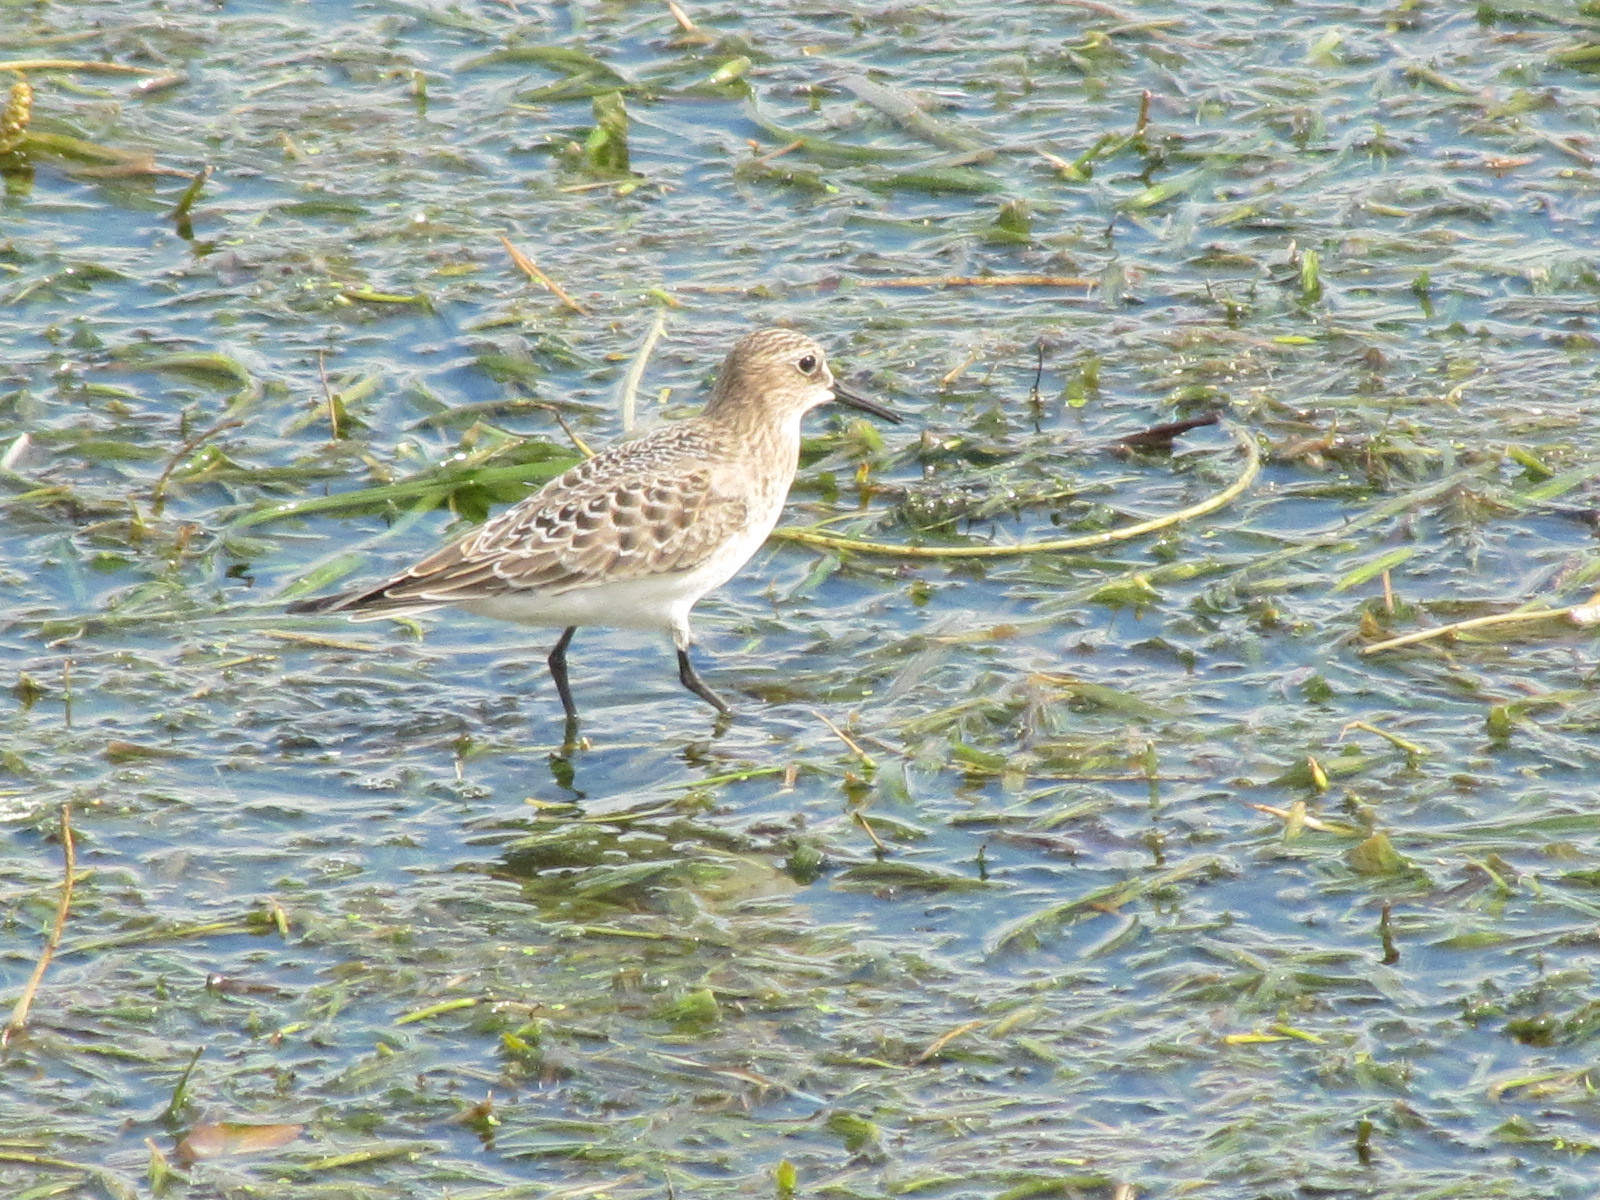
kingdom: Animalia
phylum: Chordata
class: Aves
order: Charadriiformes
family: Scolopacidae
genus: Calidris
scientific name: Calidris bairdii
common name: Baird's sandpiper
